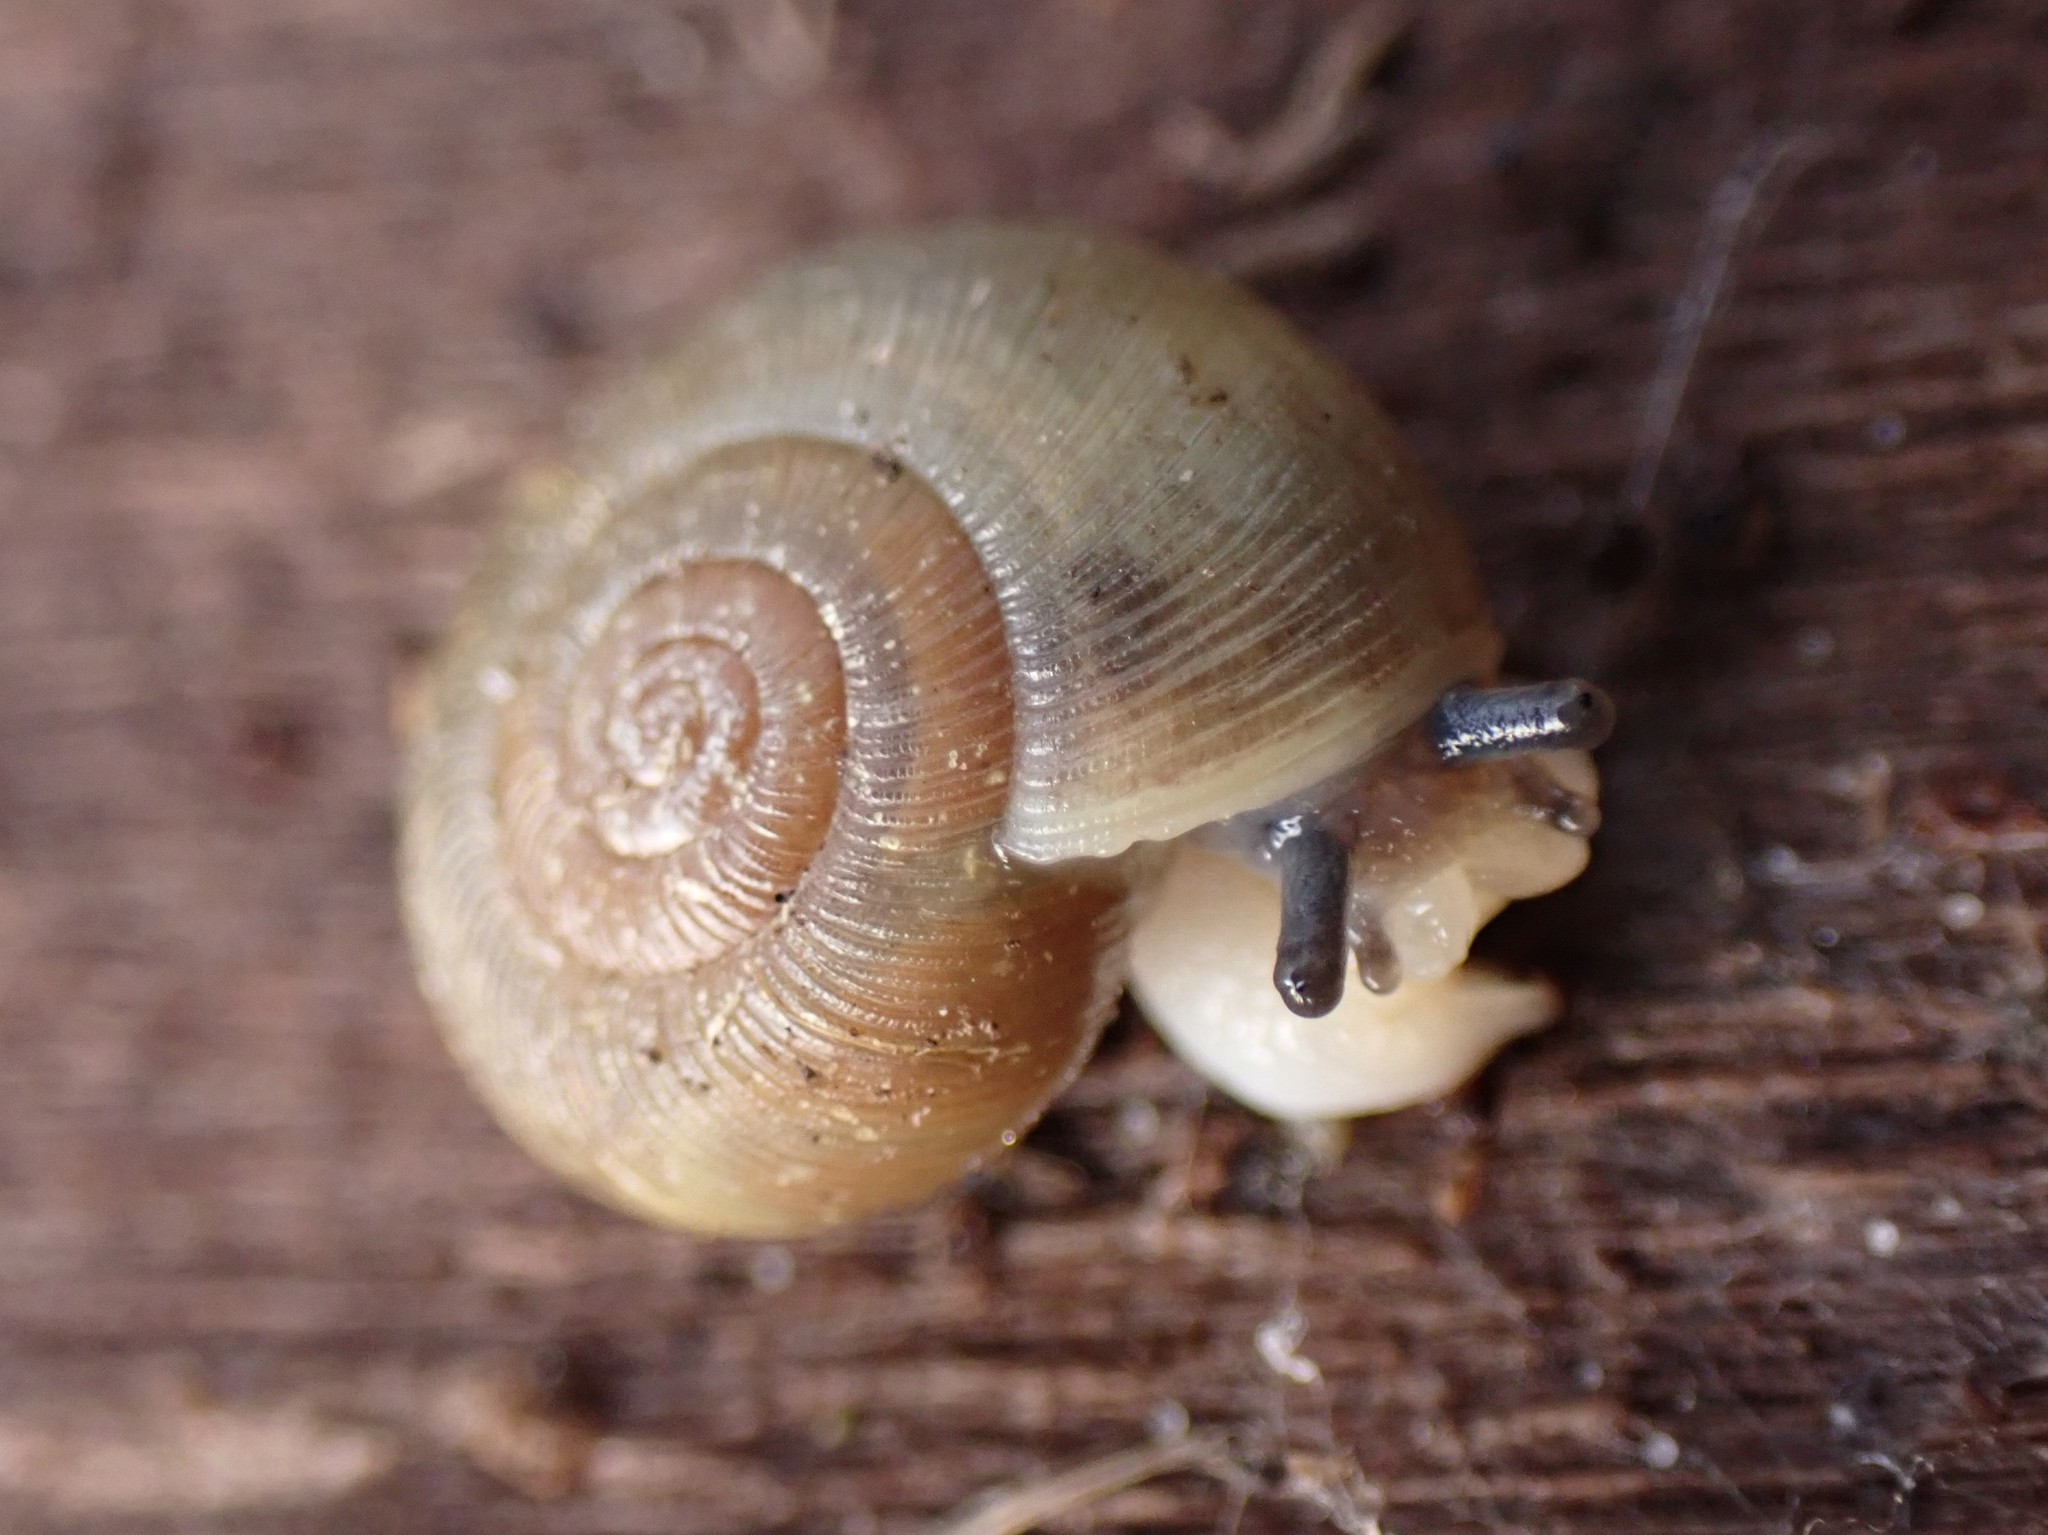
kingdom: Animalia
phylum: Mollusca
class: Gastropoda
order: Stylommatophora
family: Haplotrematidae
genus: Ancotrema
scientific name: Ancotrema sportella
